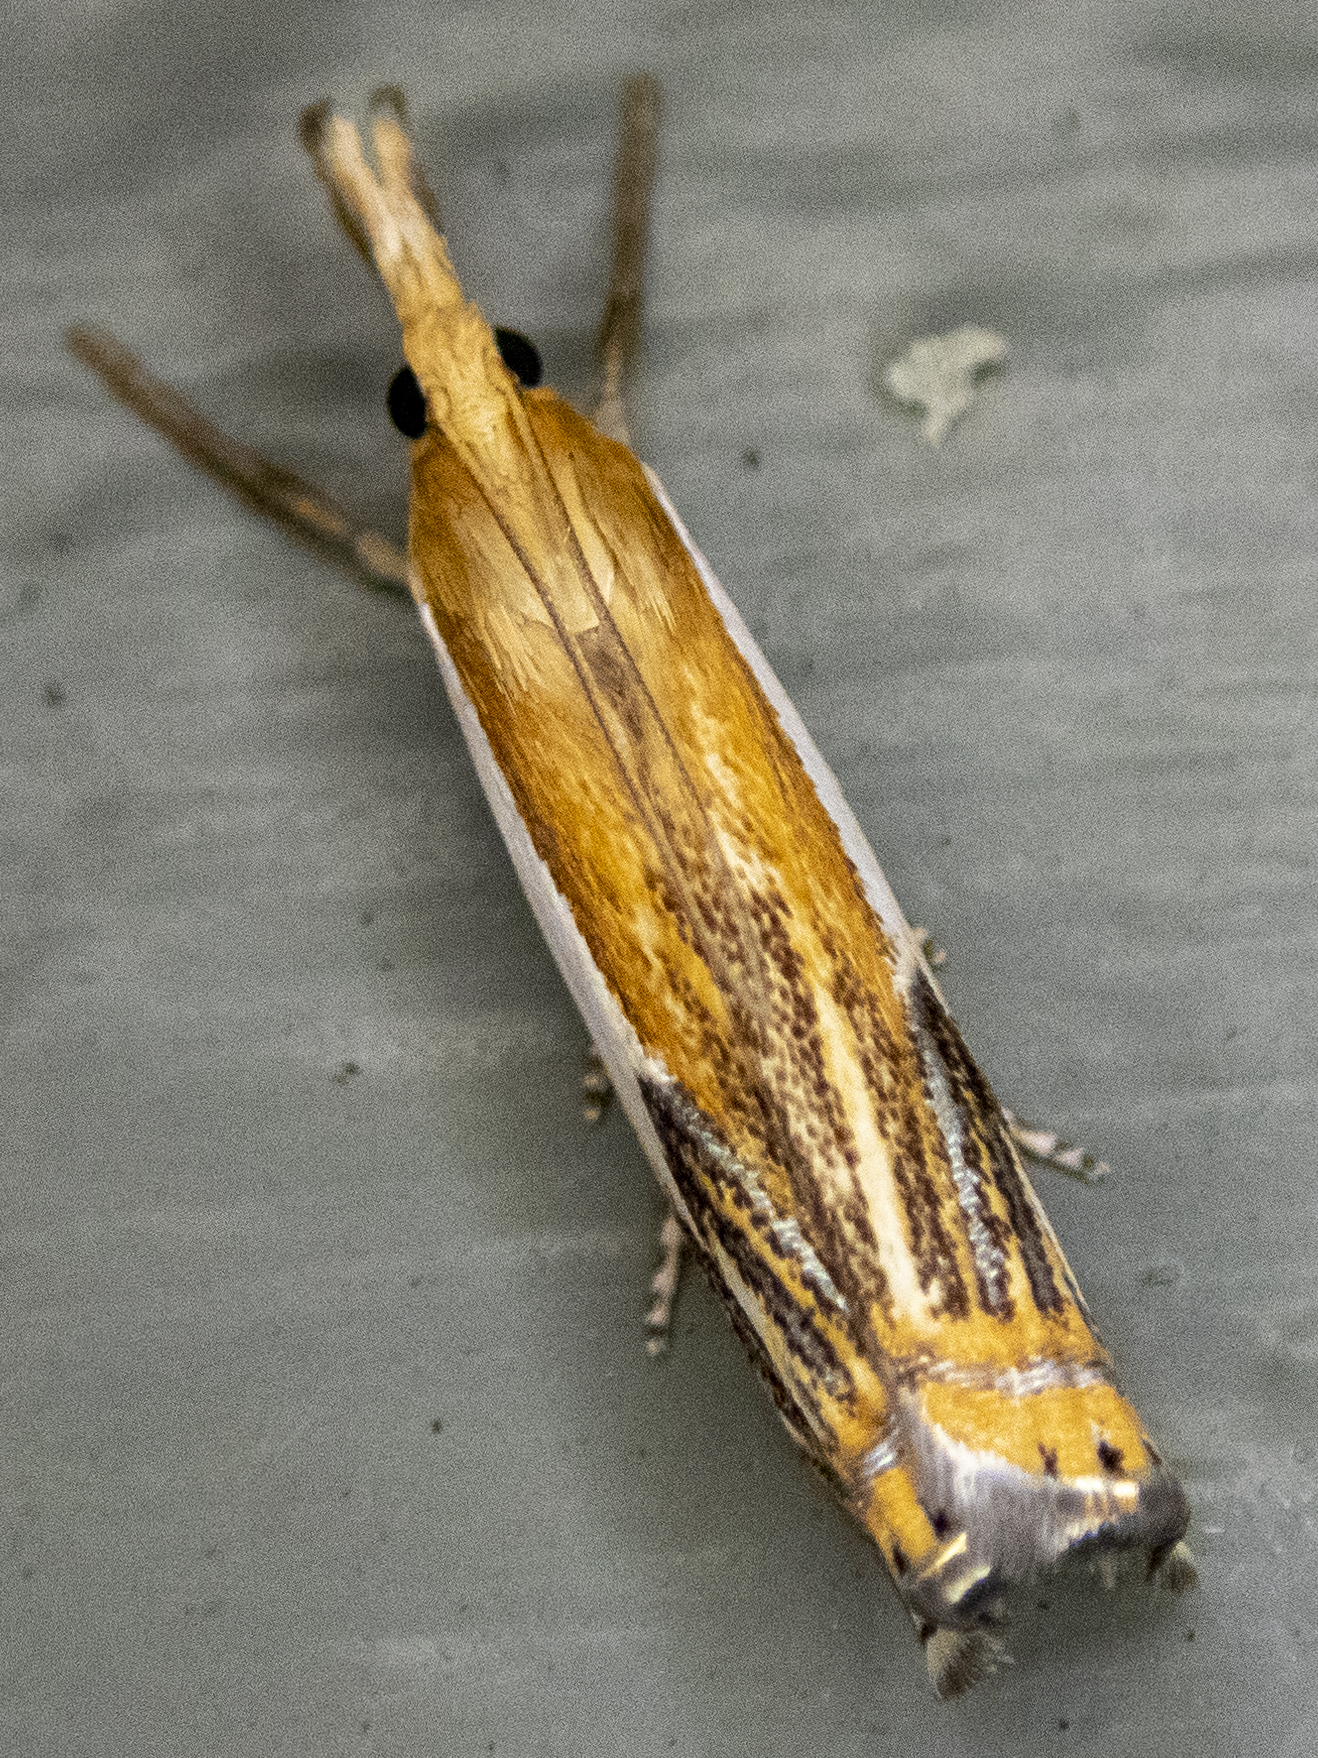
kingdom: Animalia
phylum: Arthropoda
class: Insecta
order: Lepidoptera
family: Crambidae
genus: Crambus
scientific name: Crambus agitatellus
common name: Double-banded grass-veneer
